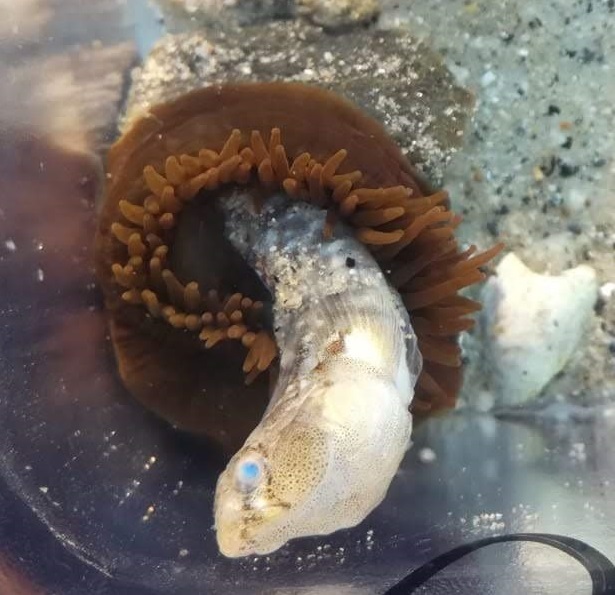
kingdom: Animalia
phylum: Cnidaria
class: Anthozoa
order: Actiniaria
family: Actiniidae
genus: Actinia
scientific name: Actinia equina
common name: Beadlet anemone
